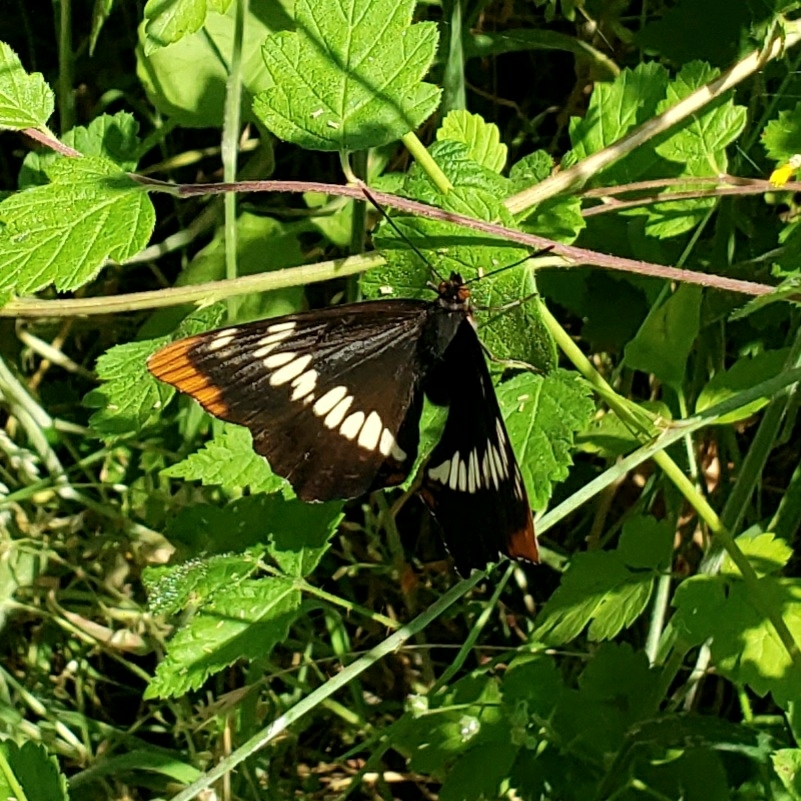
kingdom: Animalia
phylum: Arthropoda
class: Insecta
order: Lepidoptera
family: Nymphalidae
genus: Limenitis
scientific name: Limenitis lorquini
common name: Lorquin's admiral
